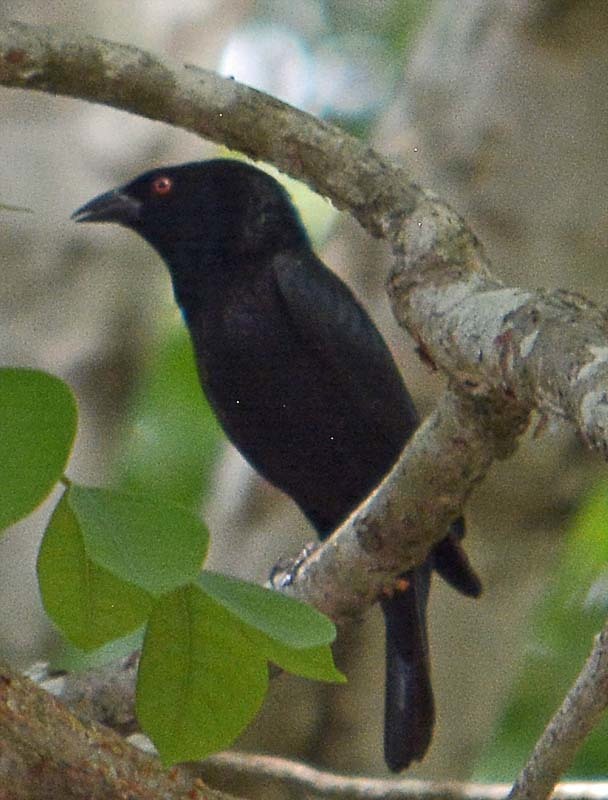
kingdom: Animalia
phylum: Chordata
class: Aves
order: Passeriformes
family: Icteridae
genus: Molothrus
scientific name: Molothrus aeneus
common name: Bronzed cowbird
